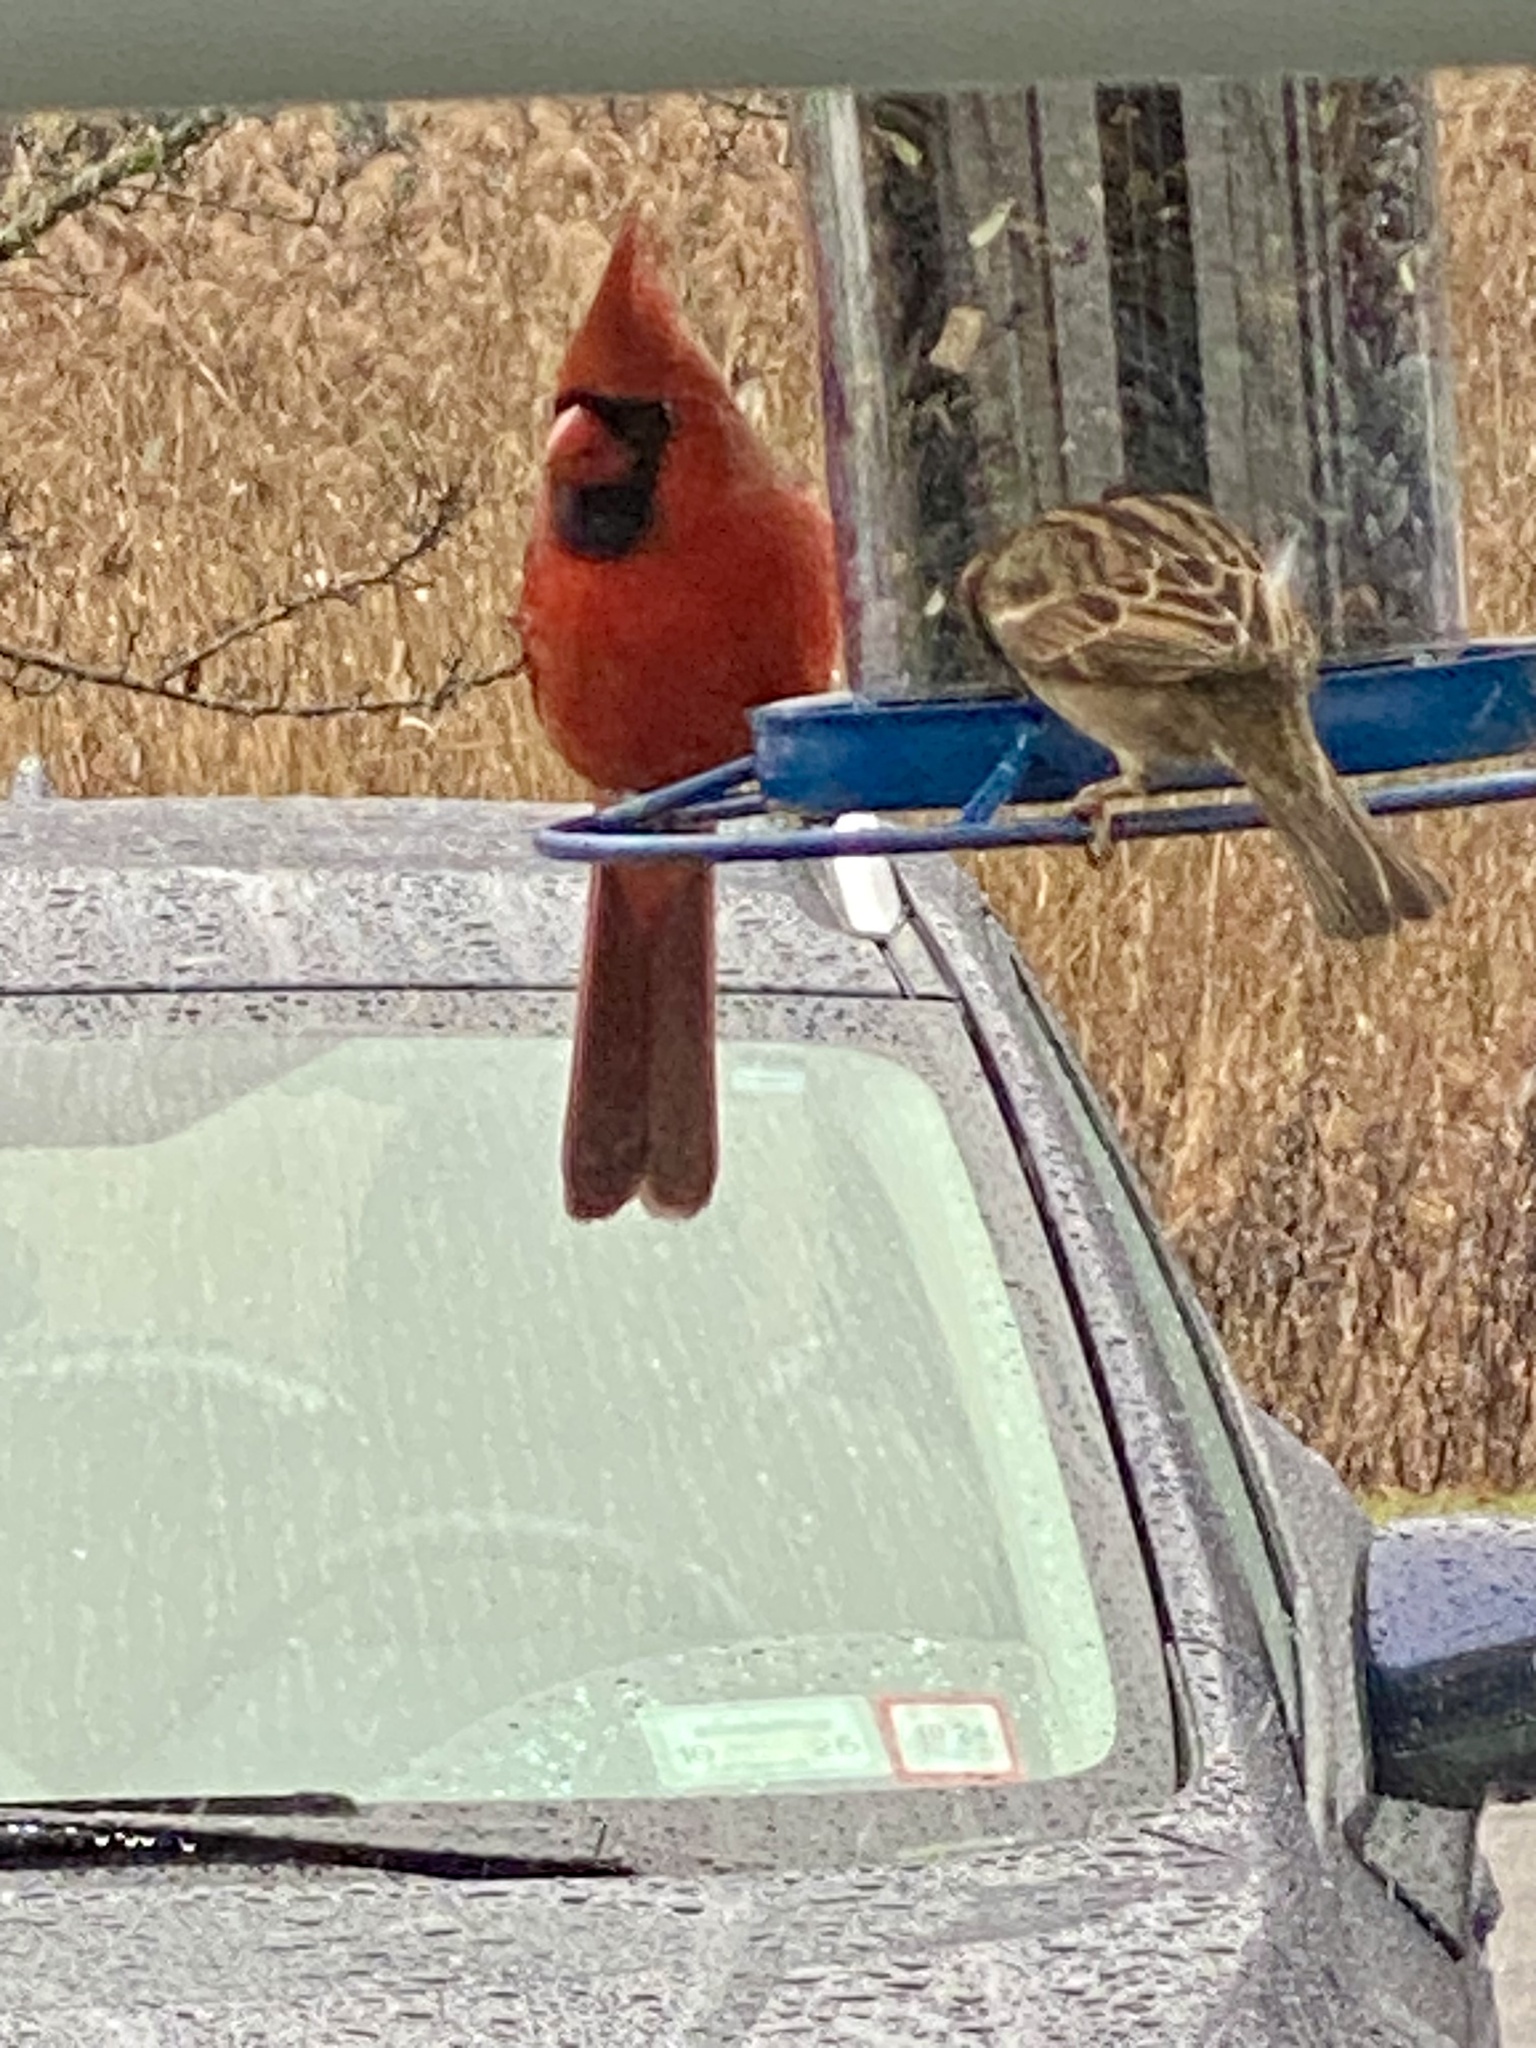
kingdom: Animalia
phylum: Chordata
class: Aves
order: Passeriformes
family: Cardinalidae
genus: Cardinalis
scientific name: Cardinalis cardinalis
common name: Northern cardinal
